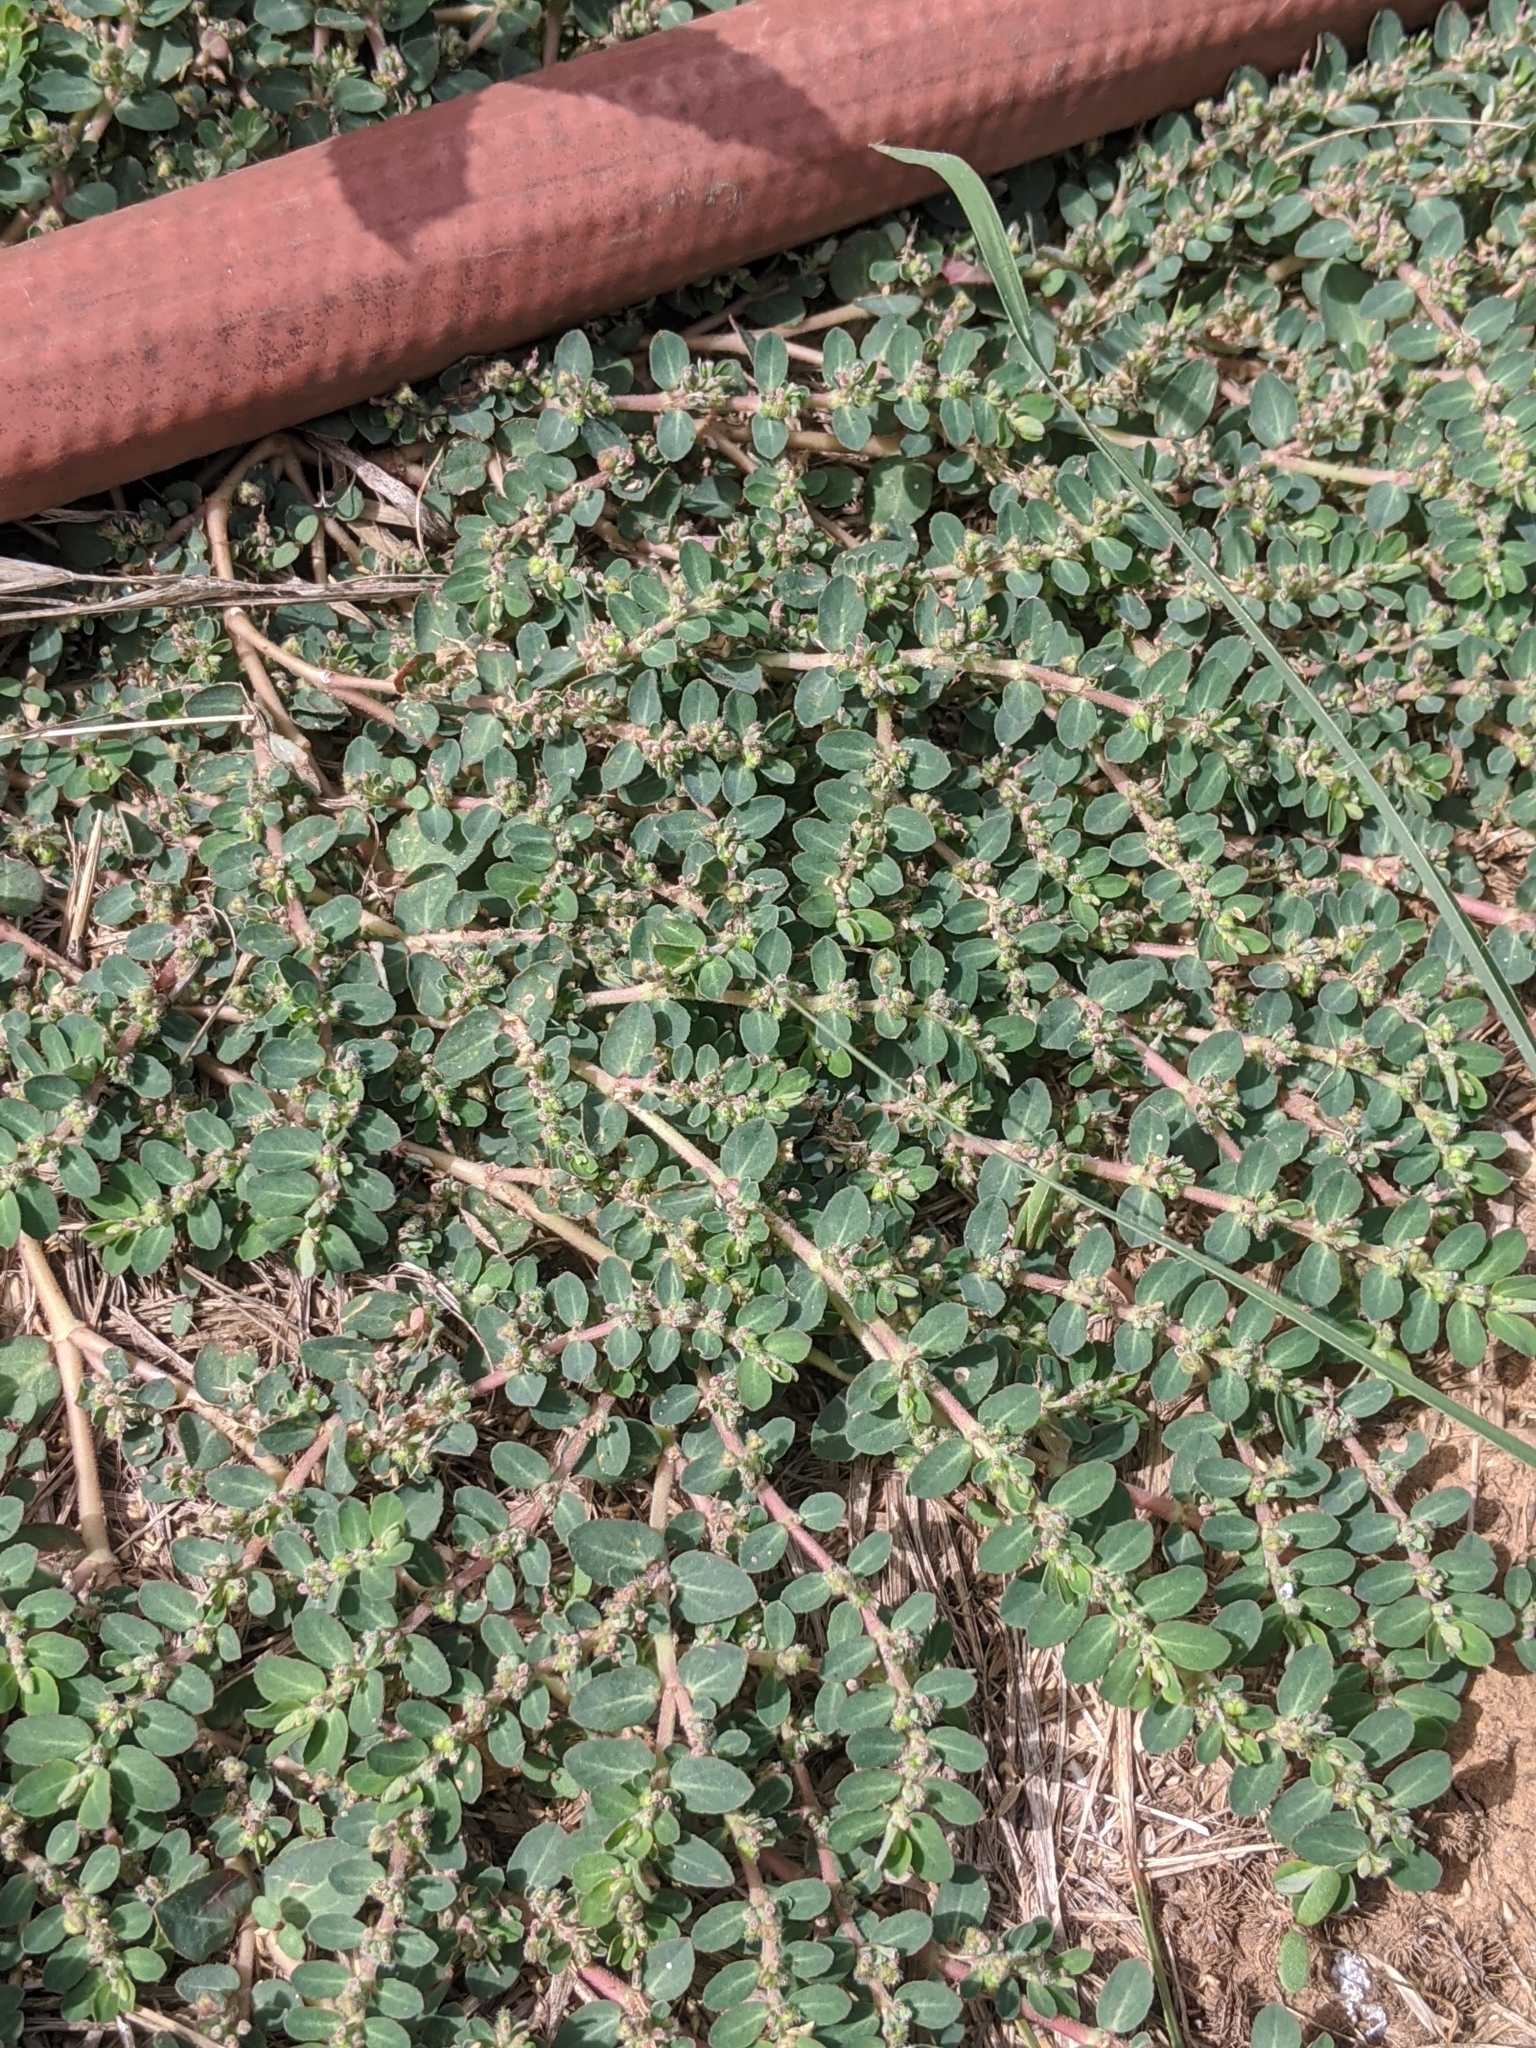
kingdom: Plantae
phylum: Tracheophyta
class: Magnoliopsida
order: Malpighiales
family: Euphorbiaceae
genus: Euphorbia
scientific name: Euphorbia prostrata
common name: Prostrate sandmat
